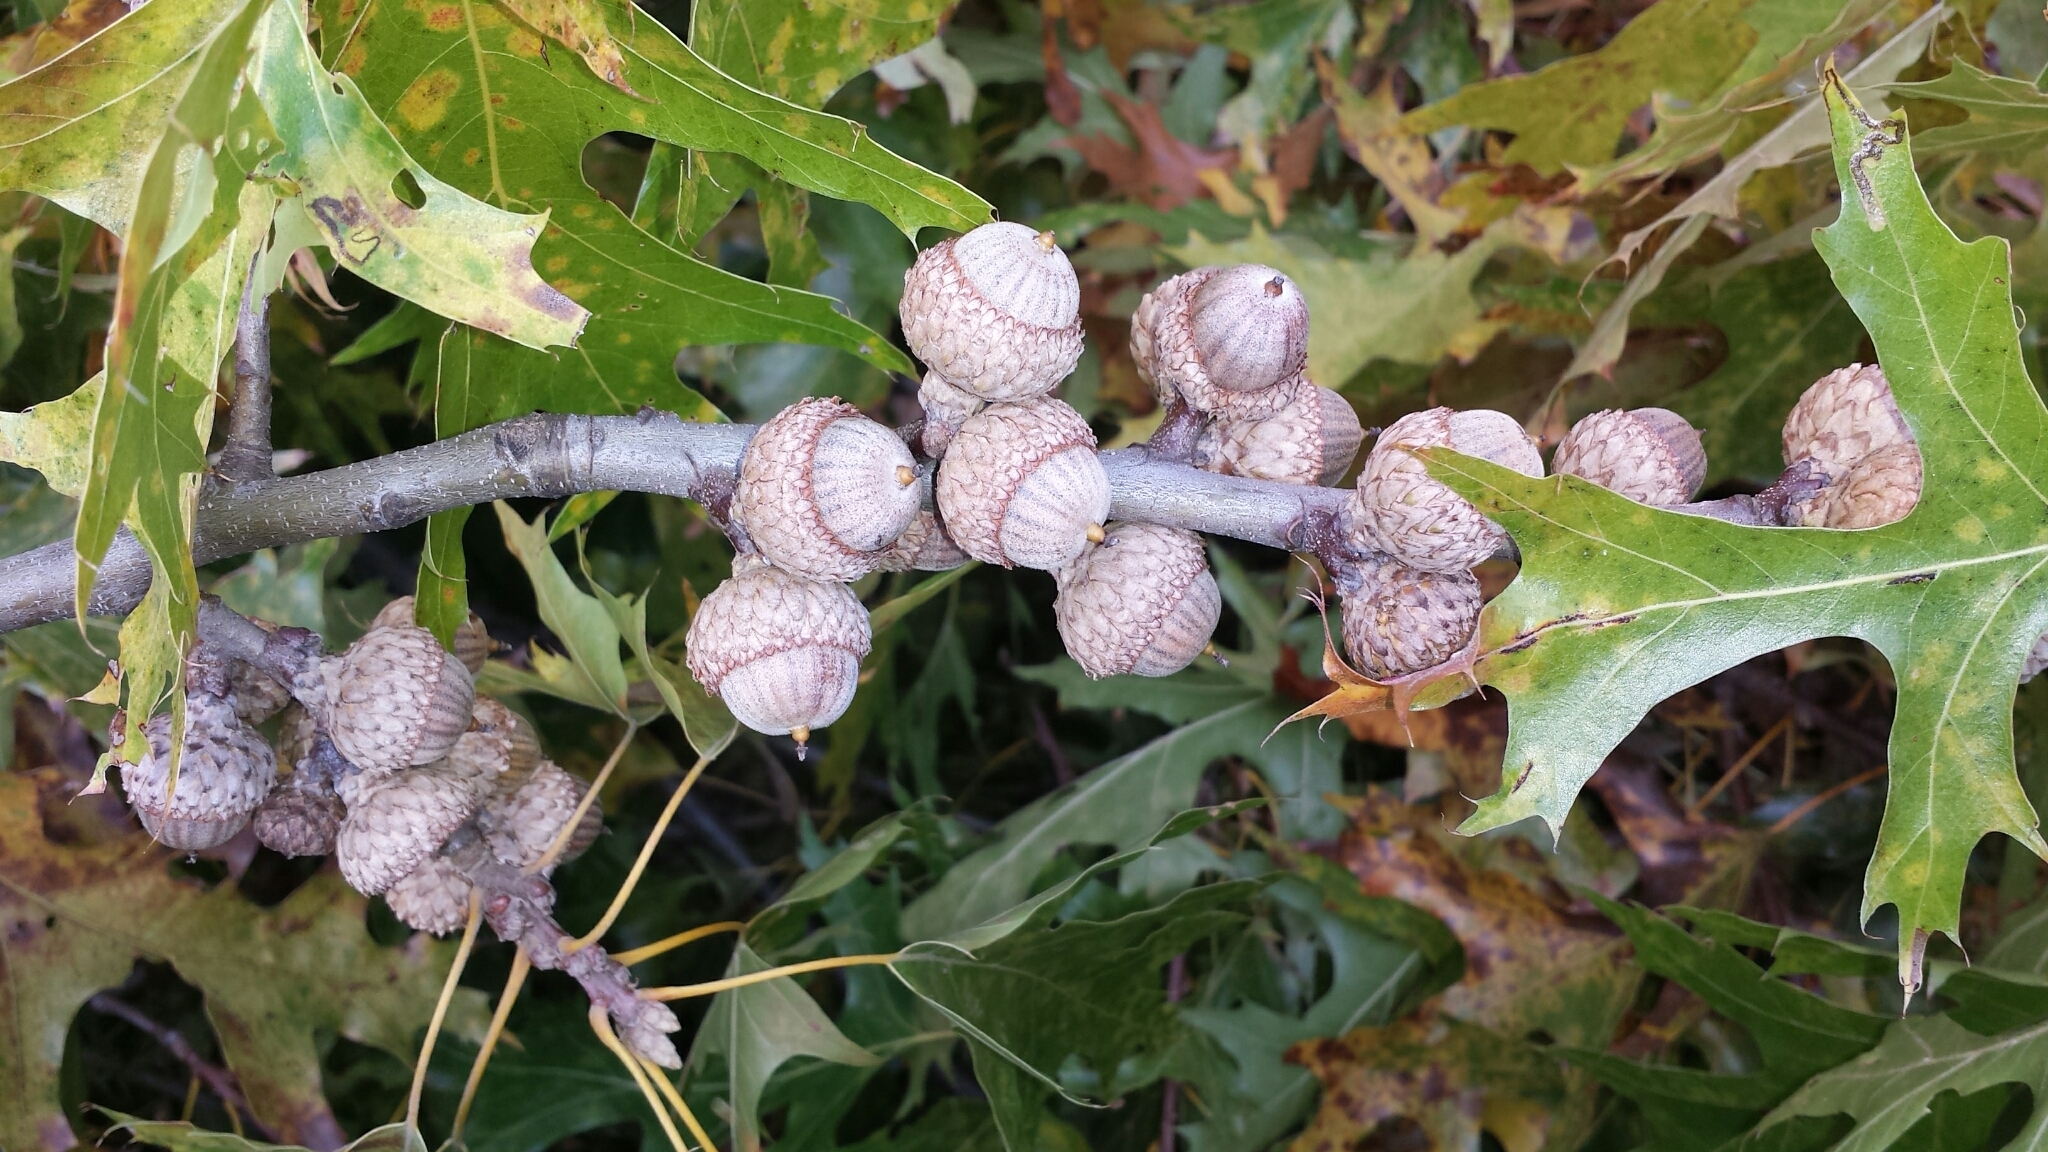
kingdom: Plantae
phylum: Tracheophyta
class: Magnoliopsida
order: Fagales
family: Fagaceae
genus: Quercus
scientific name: Quercus velutina
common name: Black oak
